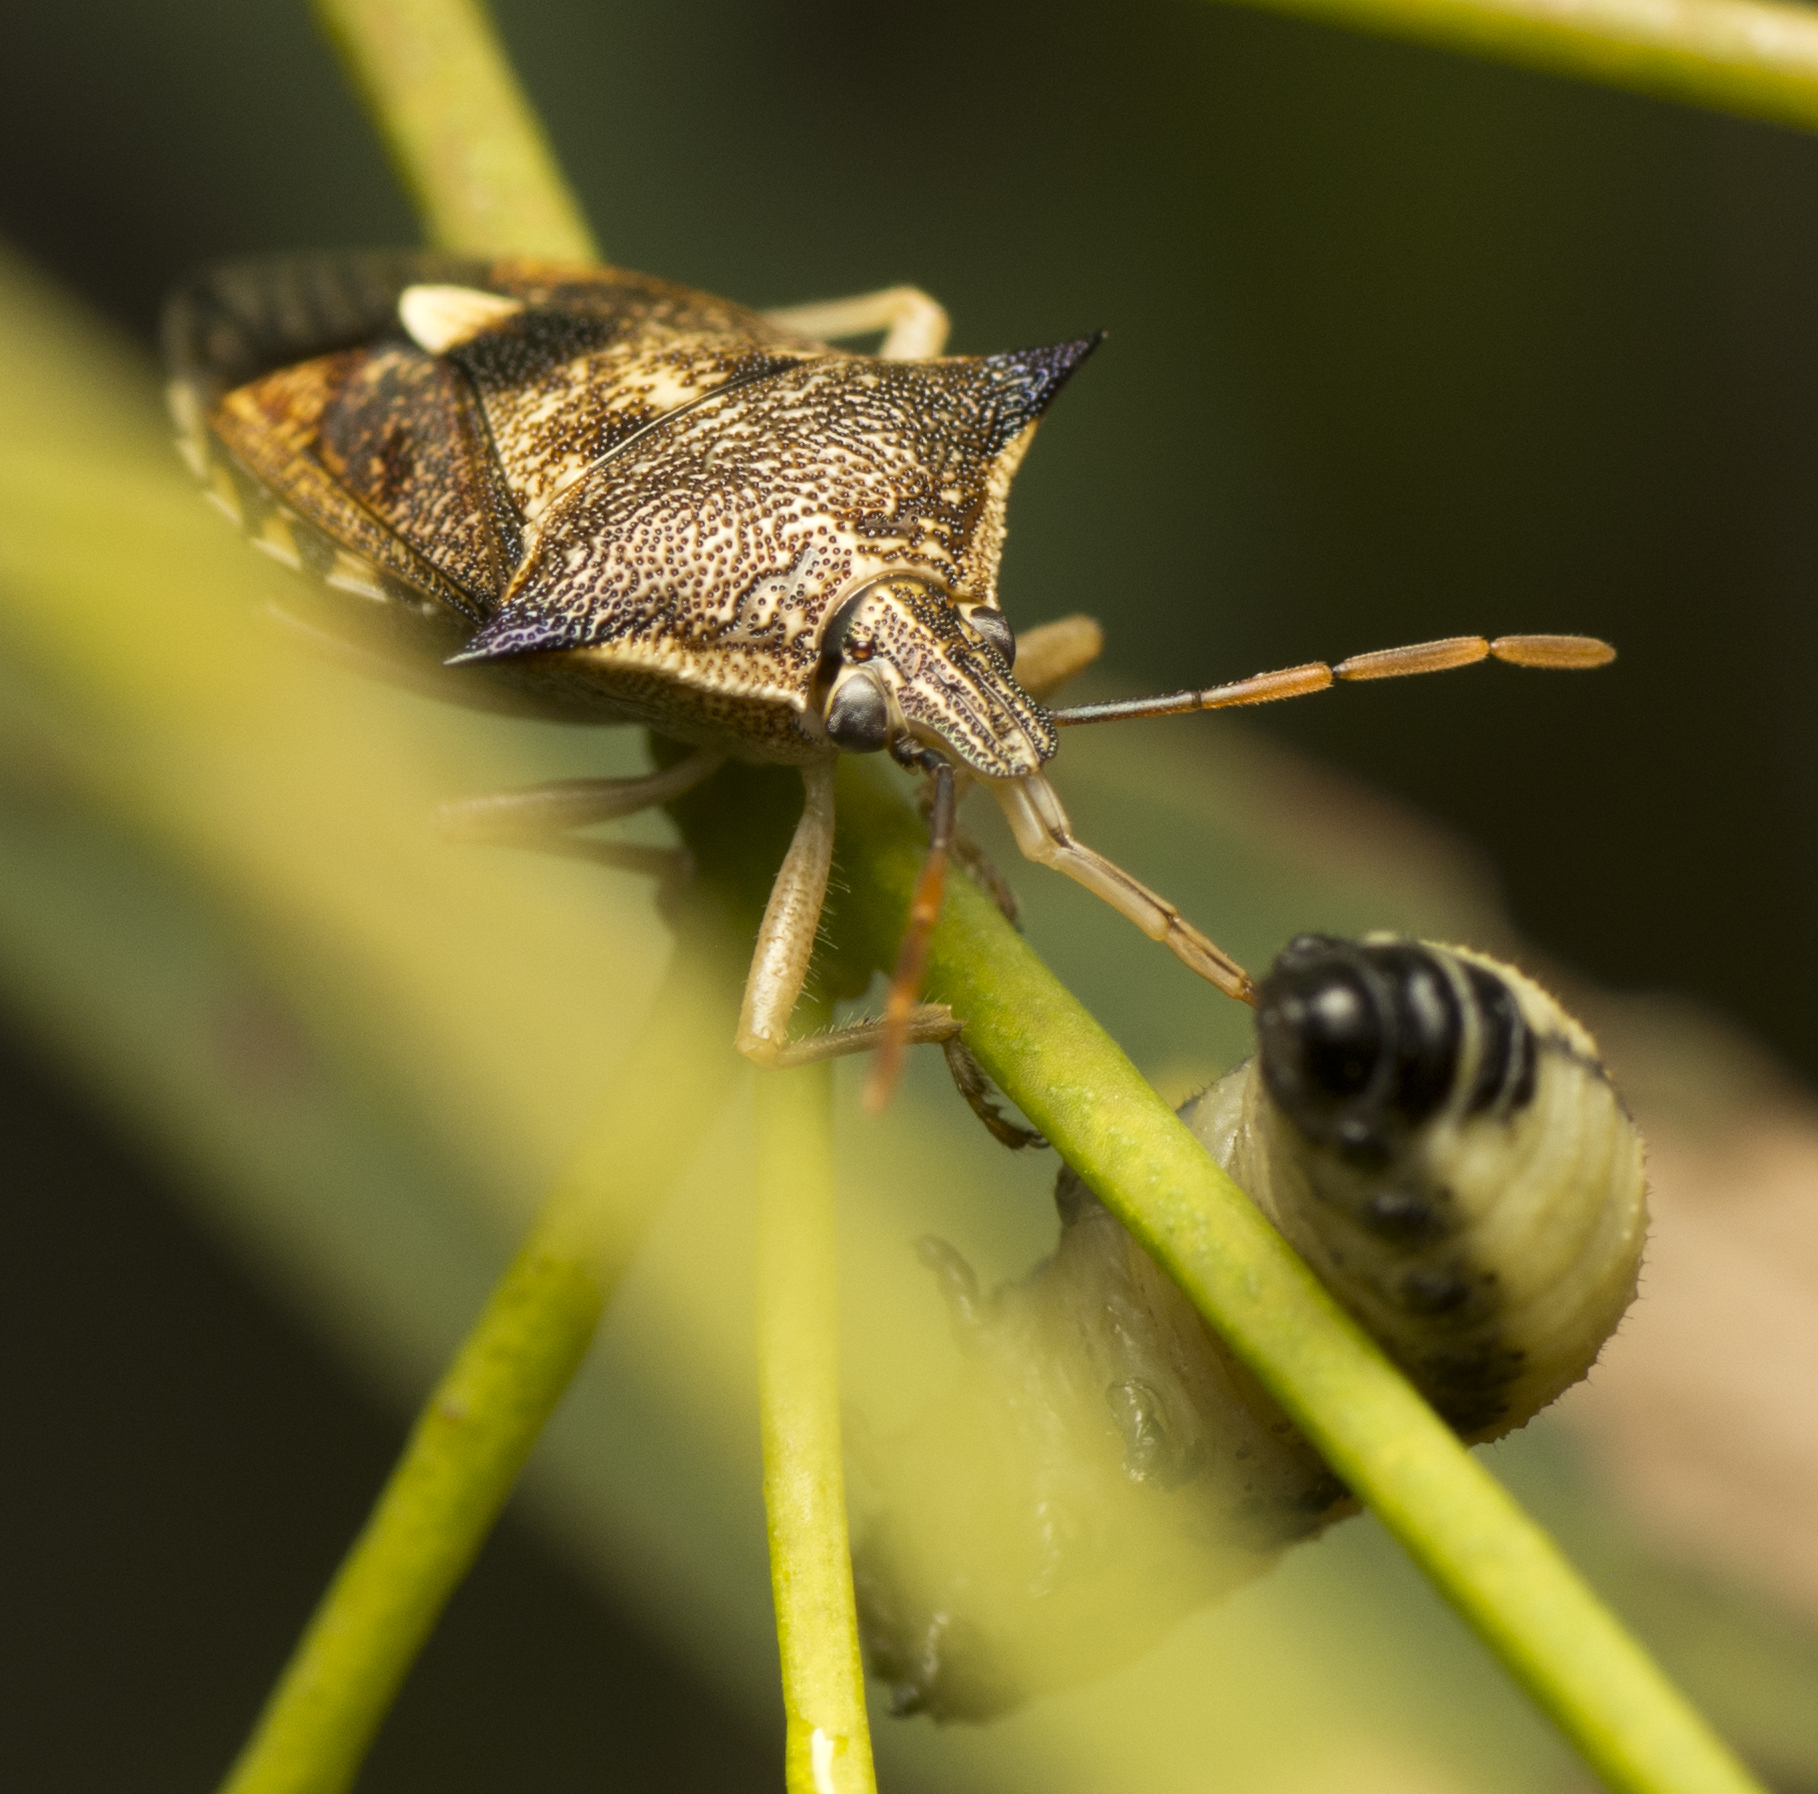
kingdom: Animalia
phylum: Arthropoda
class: Insecta
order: Hemiptera
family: Pentatomidae
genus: Oechalia
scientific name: Oechalia schellenbergii
